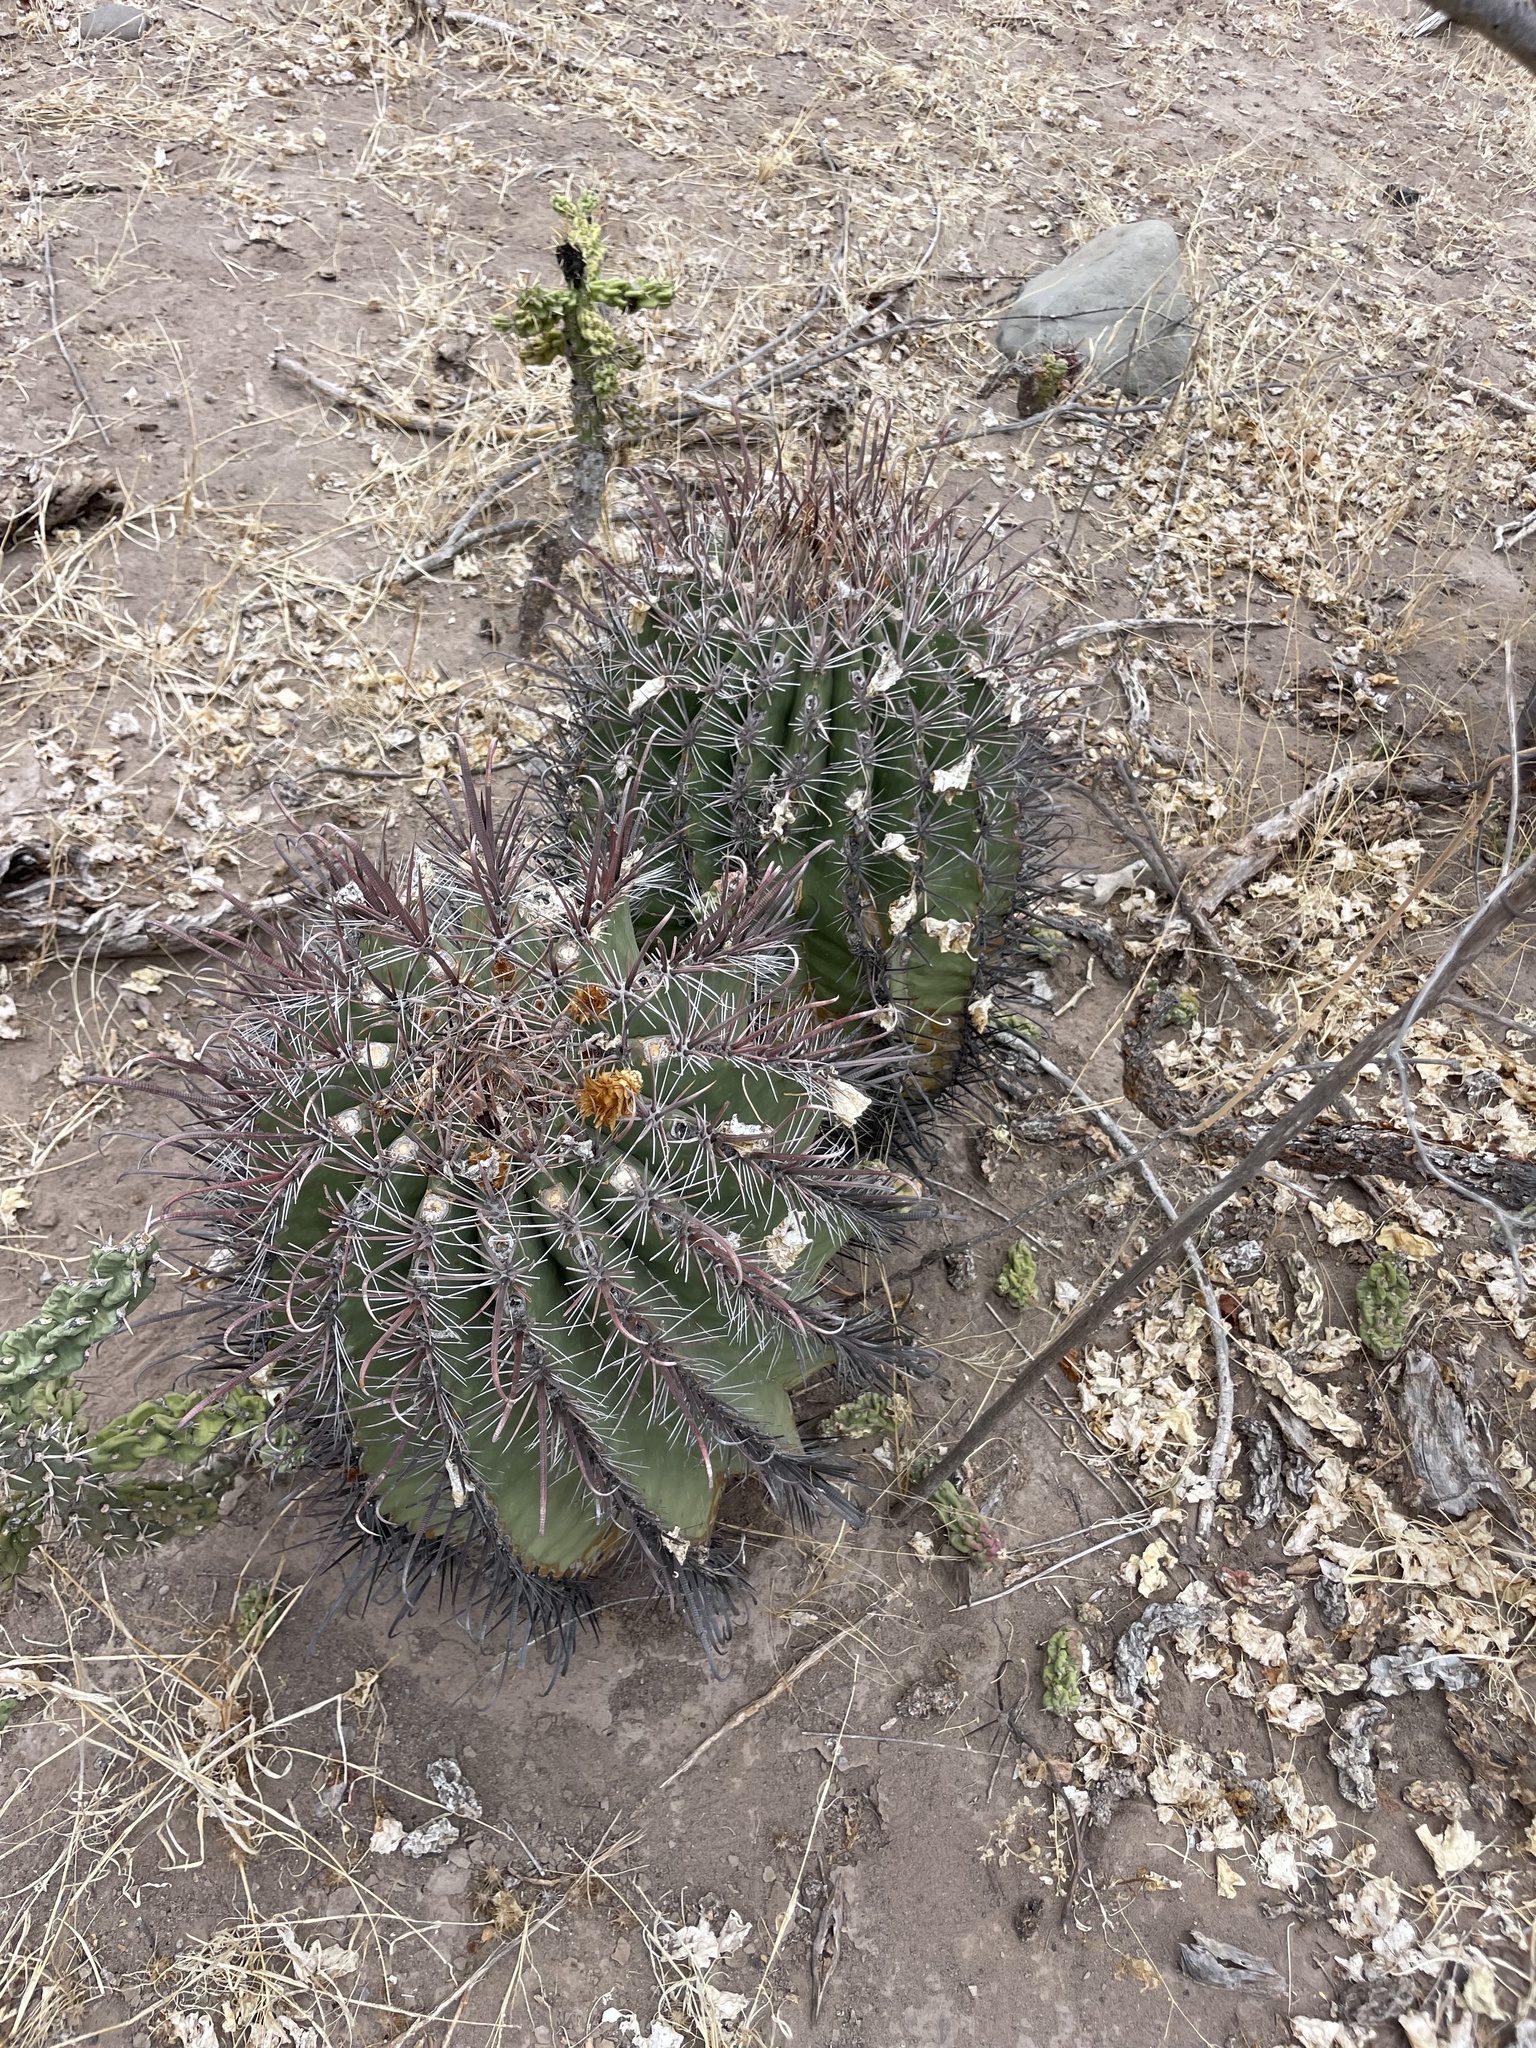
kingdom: Plantae
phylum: Tracheophyta
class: Magnoliopsida
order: Caryophyllales
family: Cactaceae
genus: Ferocactus
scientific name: Ferocactus townsendianus
